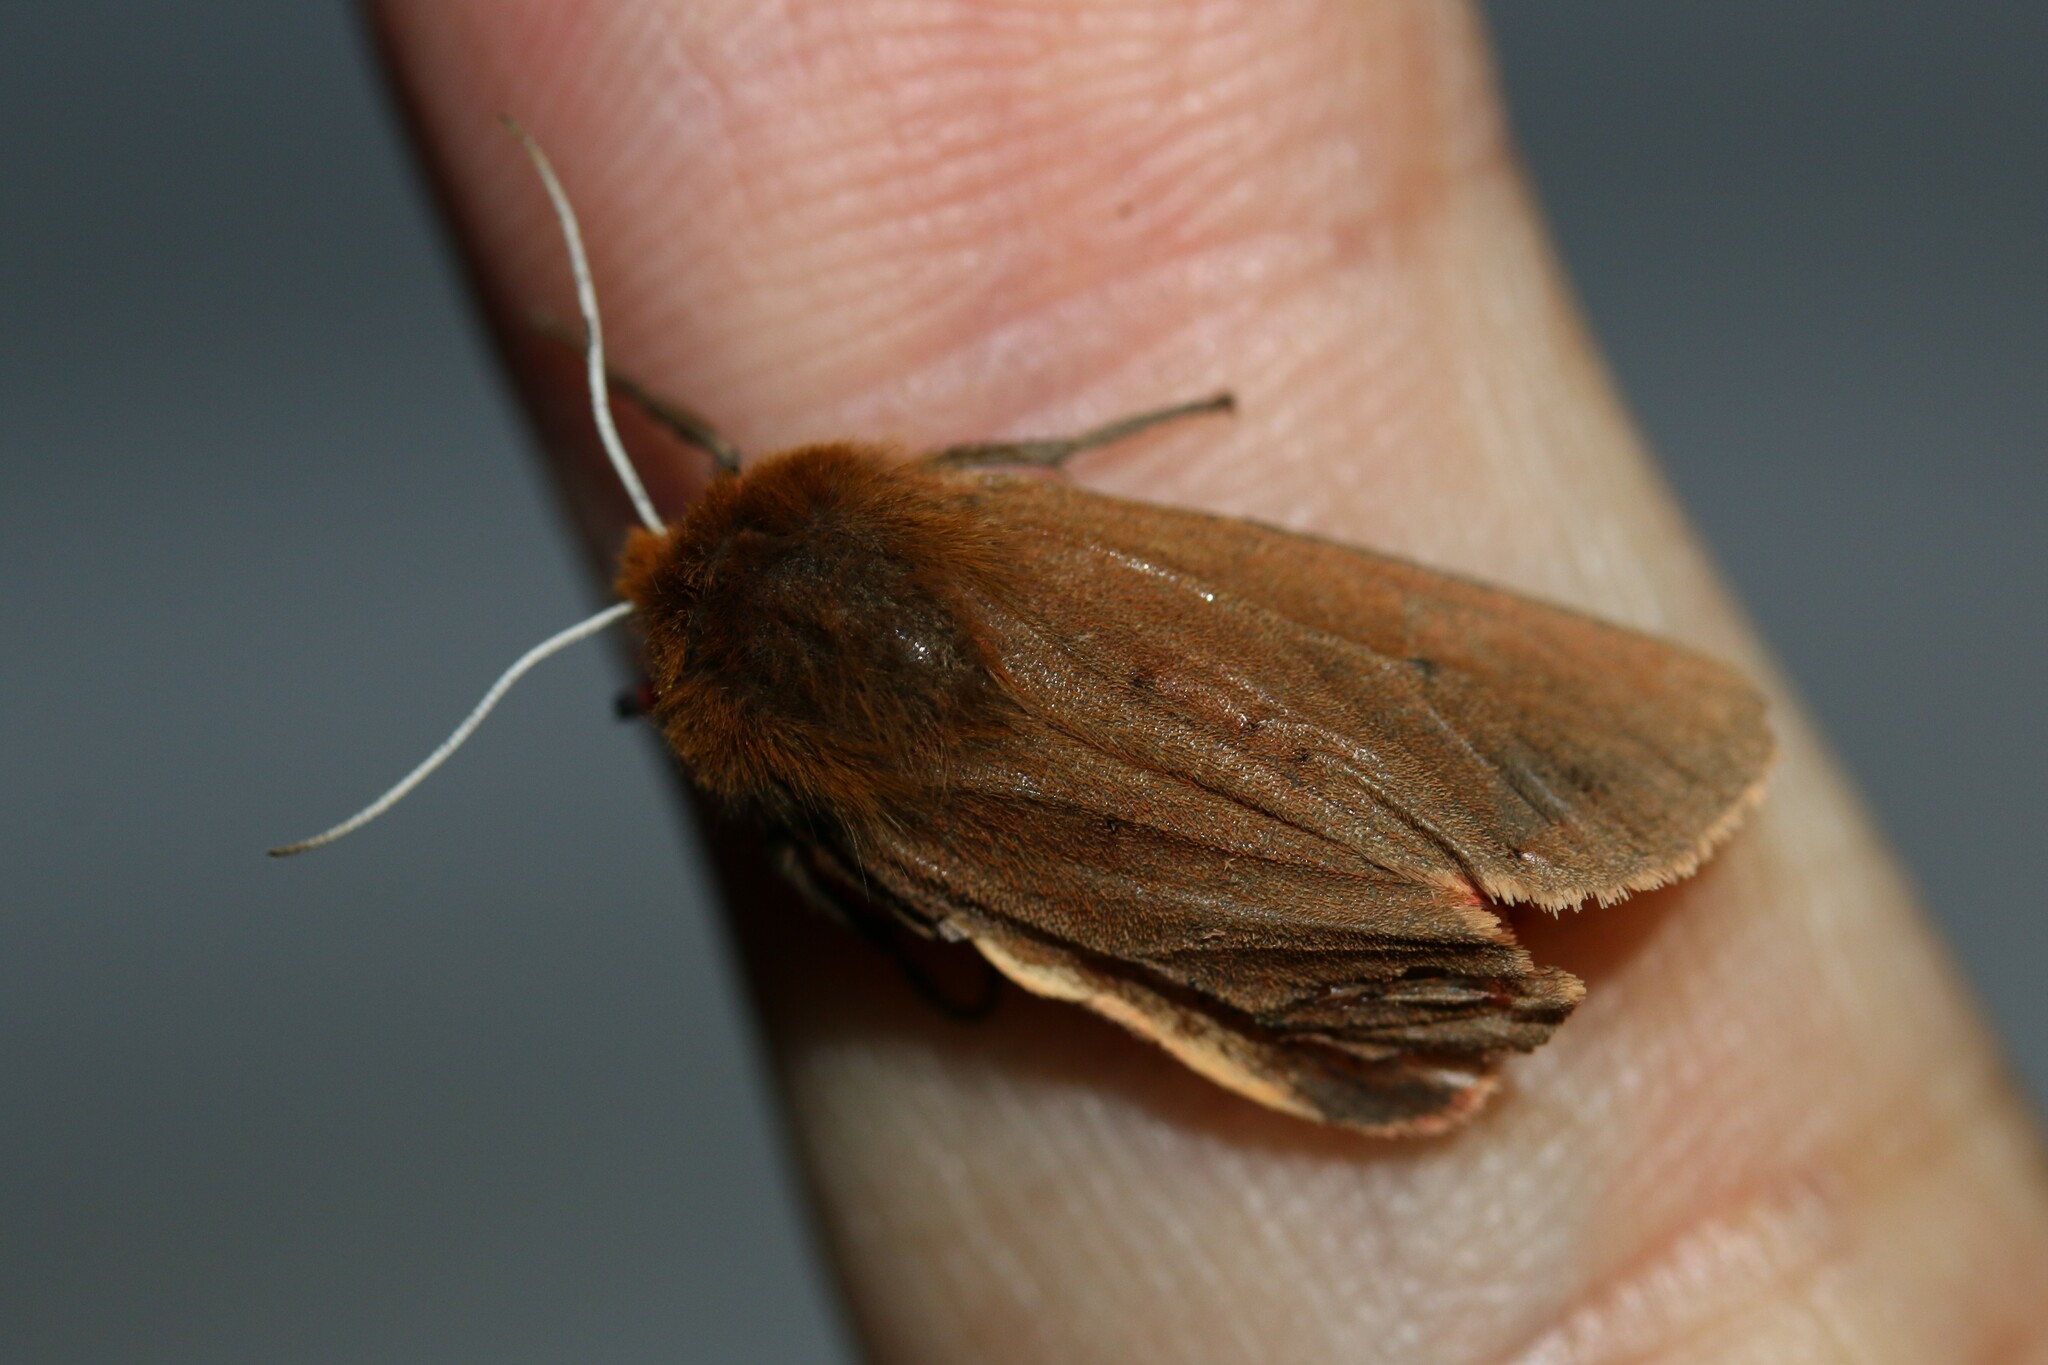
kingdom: Animalia
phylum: Arthropoda
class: Insecta
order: Lepidoptera
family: Erebidae
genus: Phragmatobia
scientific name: Phragmatobia fuliginosa
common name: Ruby tiger
